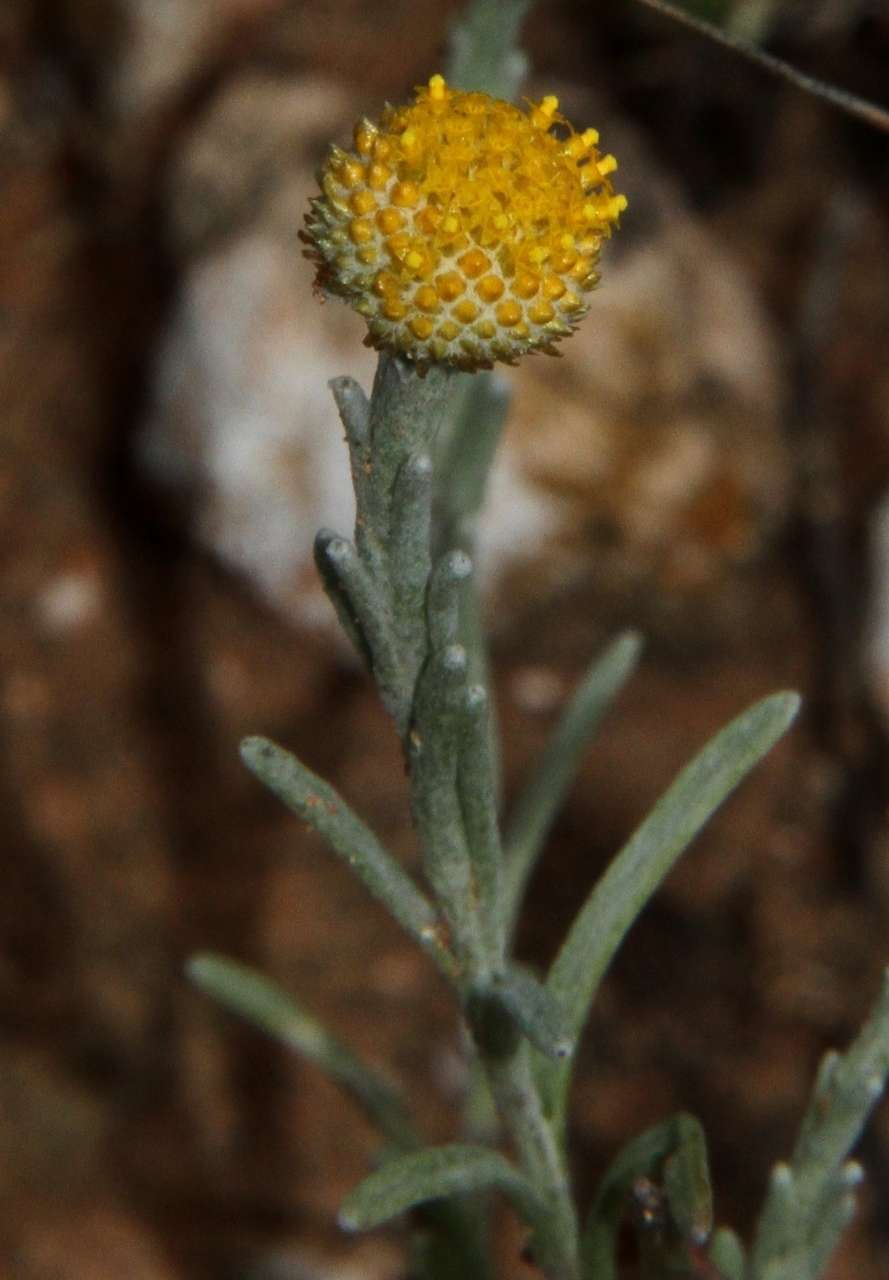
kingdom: Plantae
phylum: Tracheophyta
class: Magnoliopsida
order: Asterales
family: Asteraceae
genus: Trichanthodium
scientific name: Trichanthodium skirrophorum
